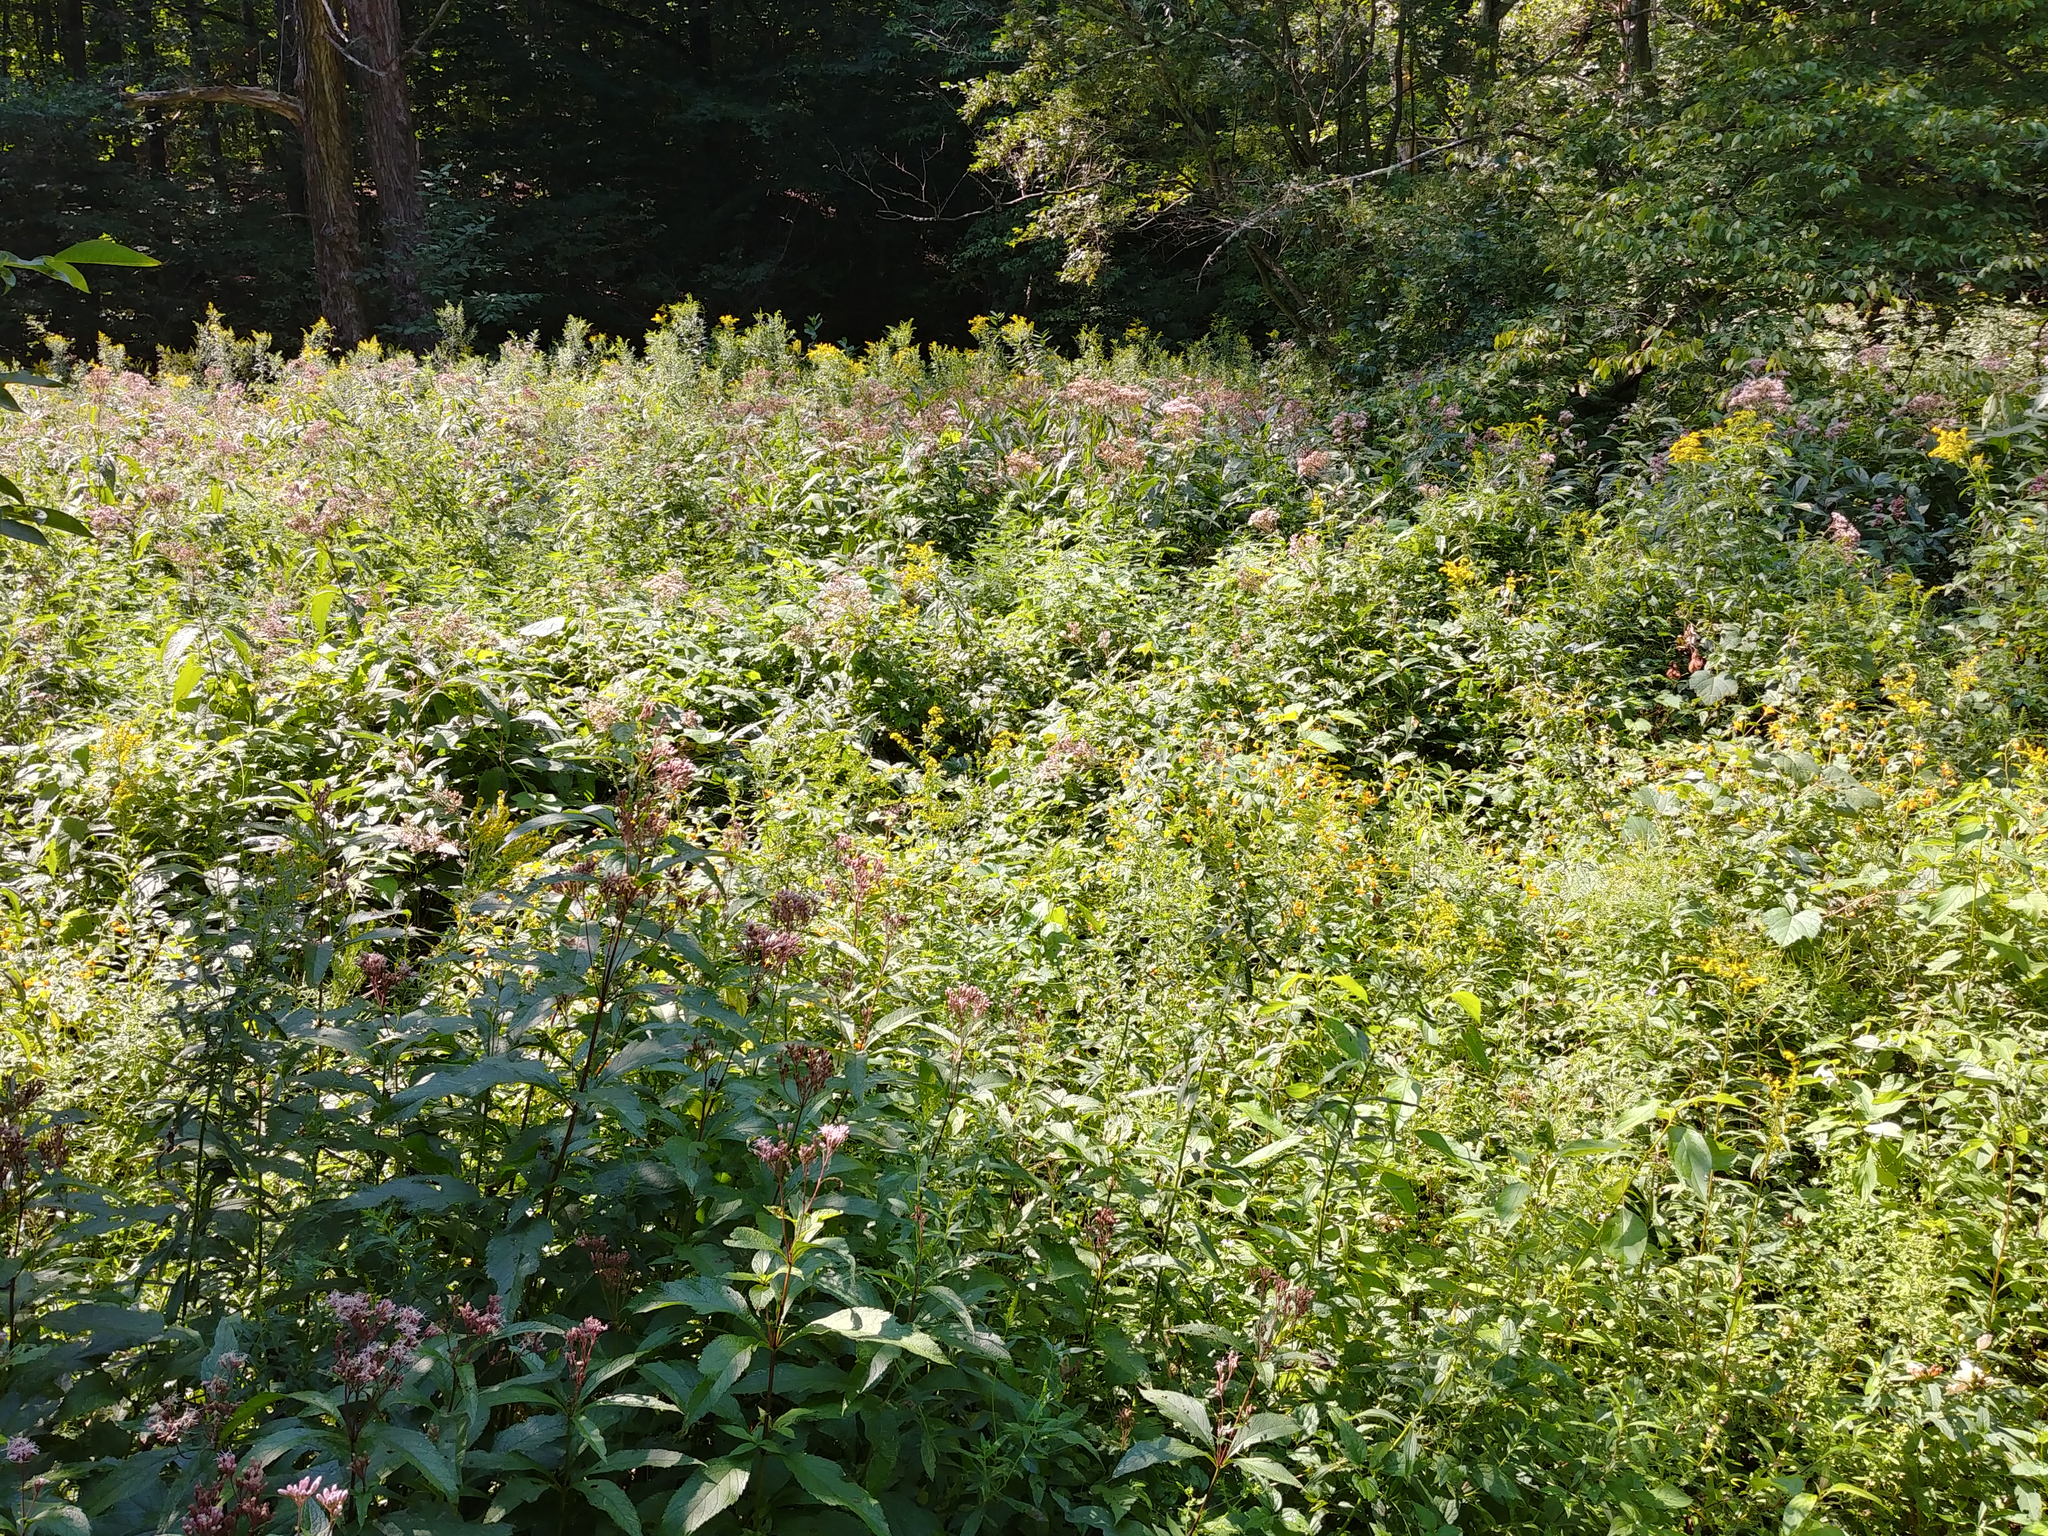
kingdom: Plantae
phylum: Tracheophyta
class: Magnoliopsida
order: Asterales
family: Asteraceae
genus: Eutrochium
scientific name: Eutrochium maculatum
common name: Spotted joe pye weed
